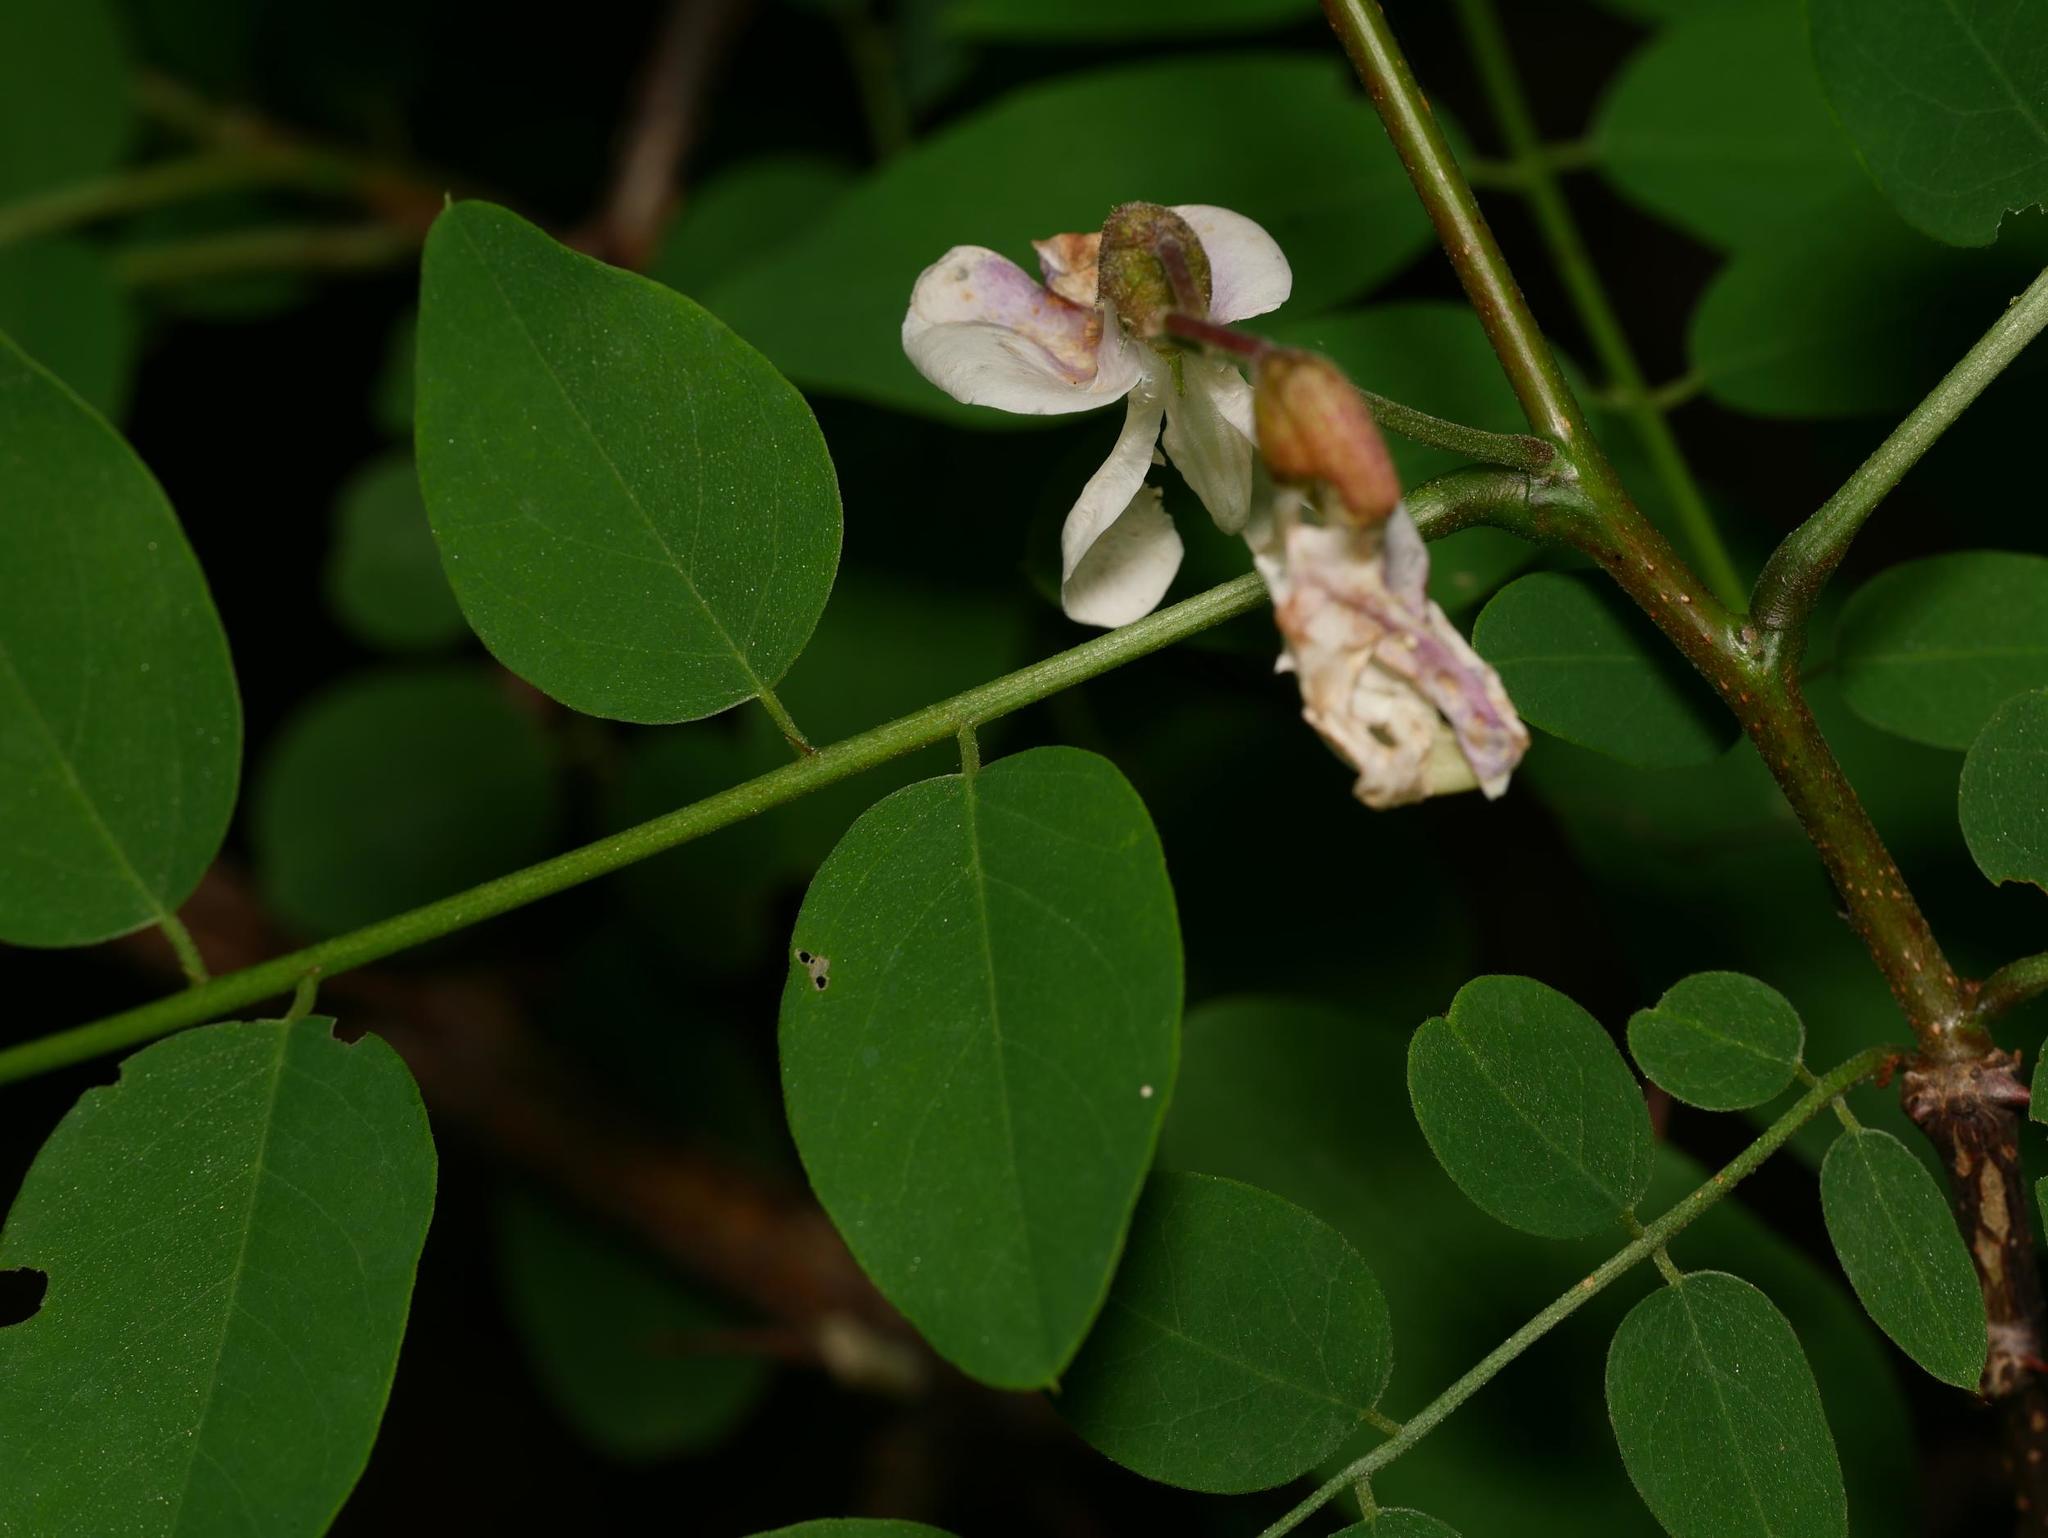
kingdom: Plantae
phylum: Tracheophyta
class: Magnoliopsida
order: Fabales
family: Fabaceae
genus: Robinia
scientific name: Robinia pseudoacacia
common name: Black locust
